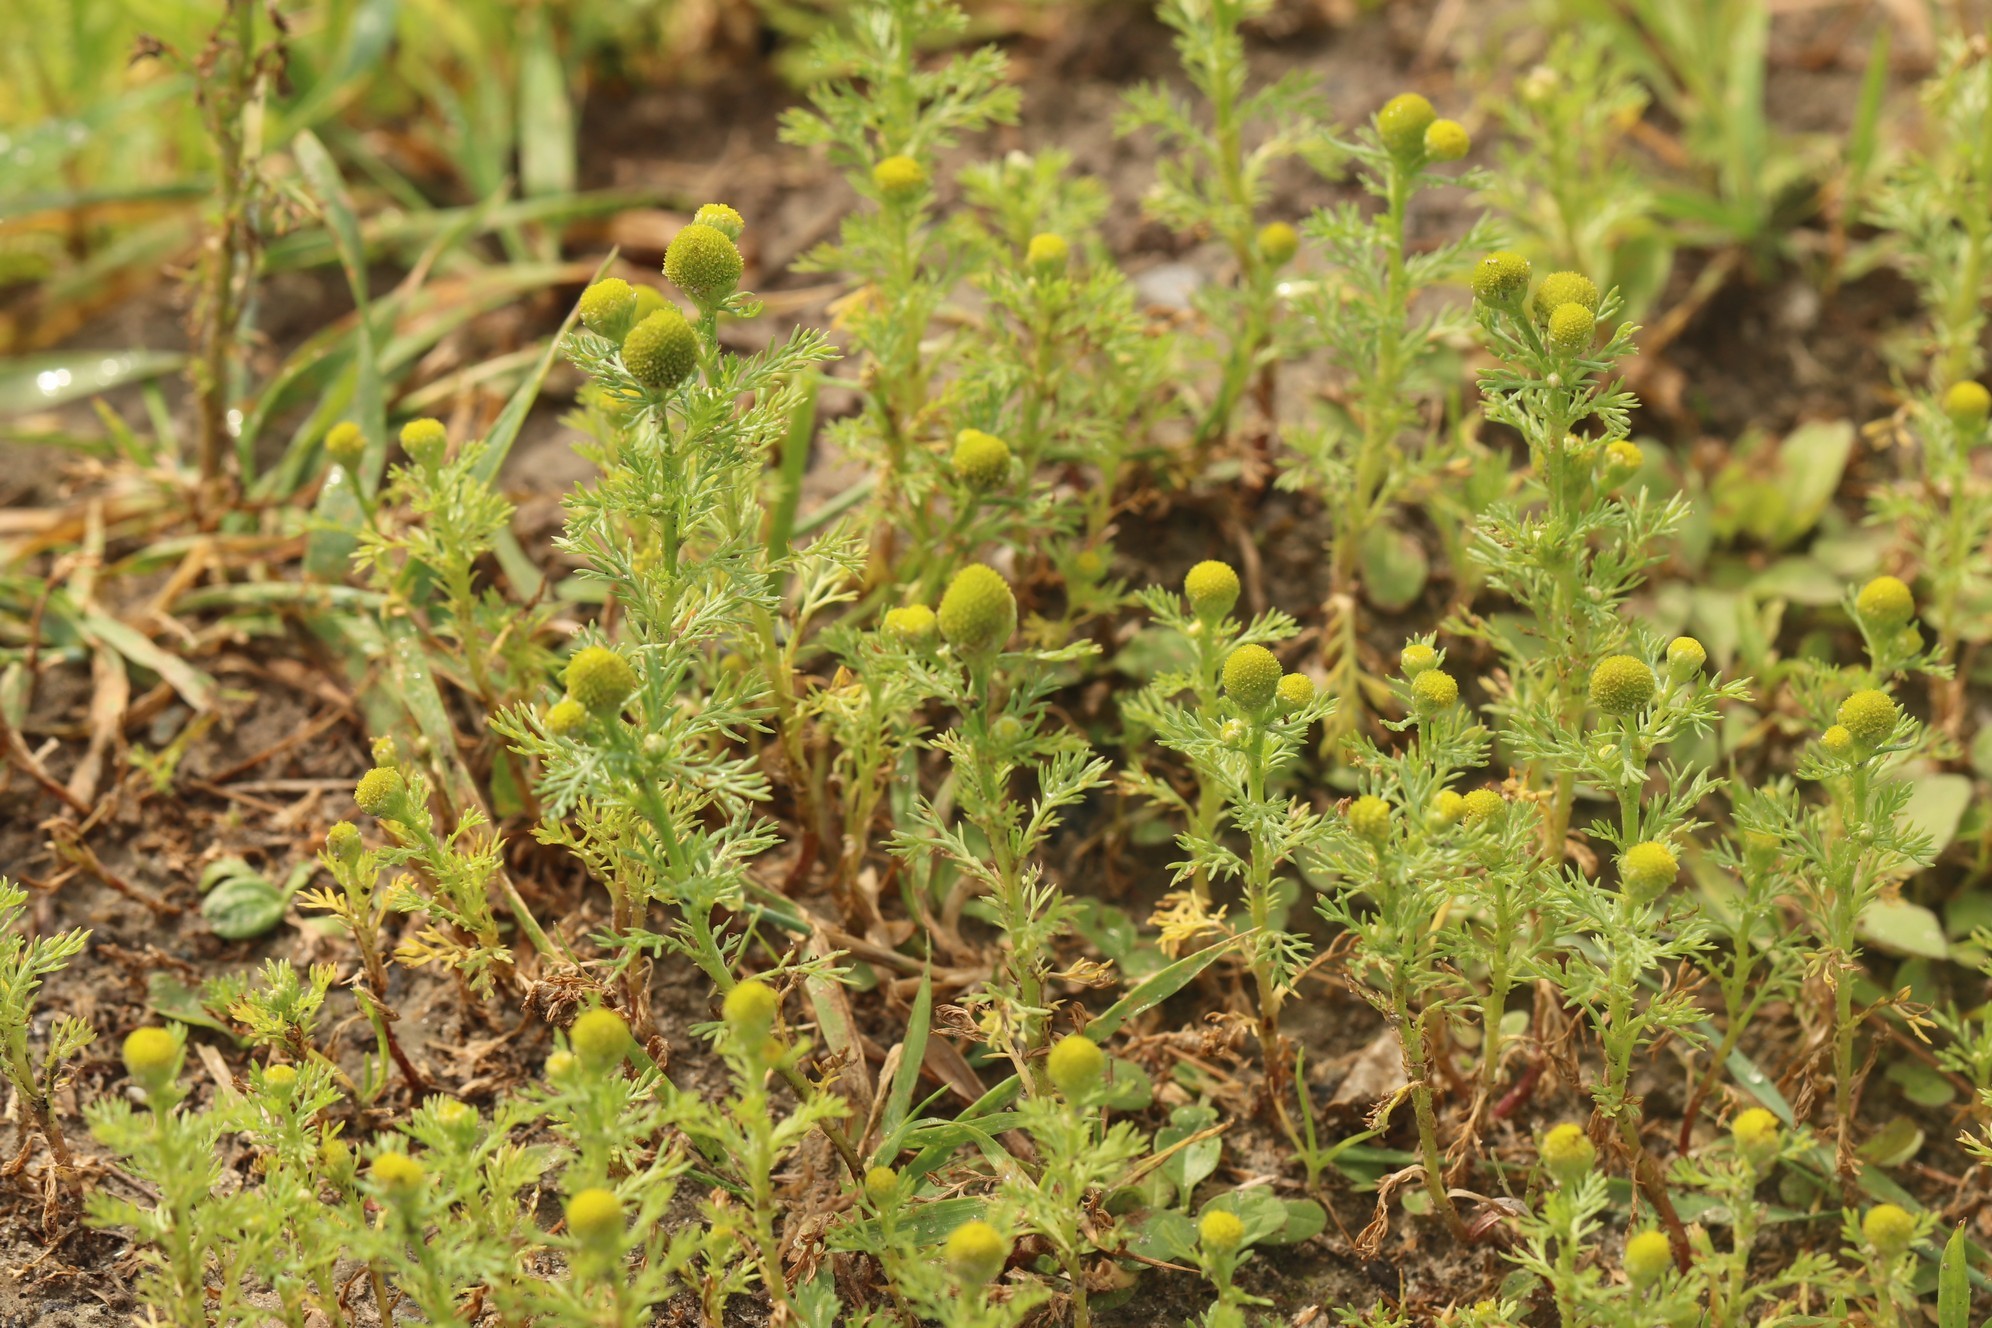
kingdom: Plantae
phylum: Tracheophyta
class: Magnoliopsida
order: Asterales
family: Asteraceae
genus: Matricaria
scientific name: Matricaria discoidea
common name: Disc mayweed
